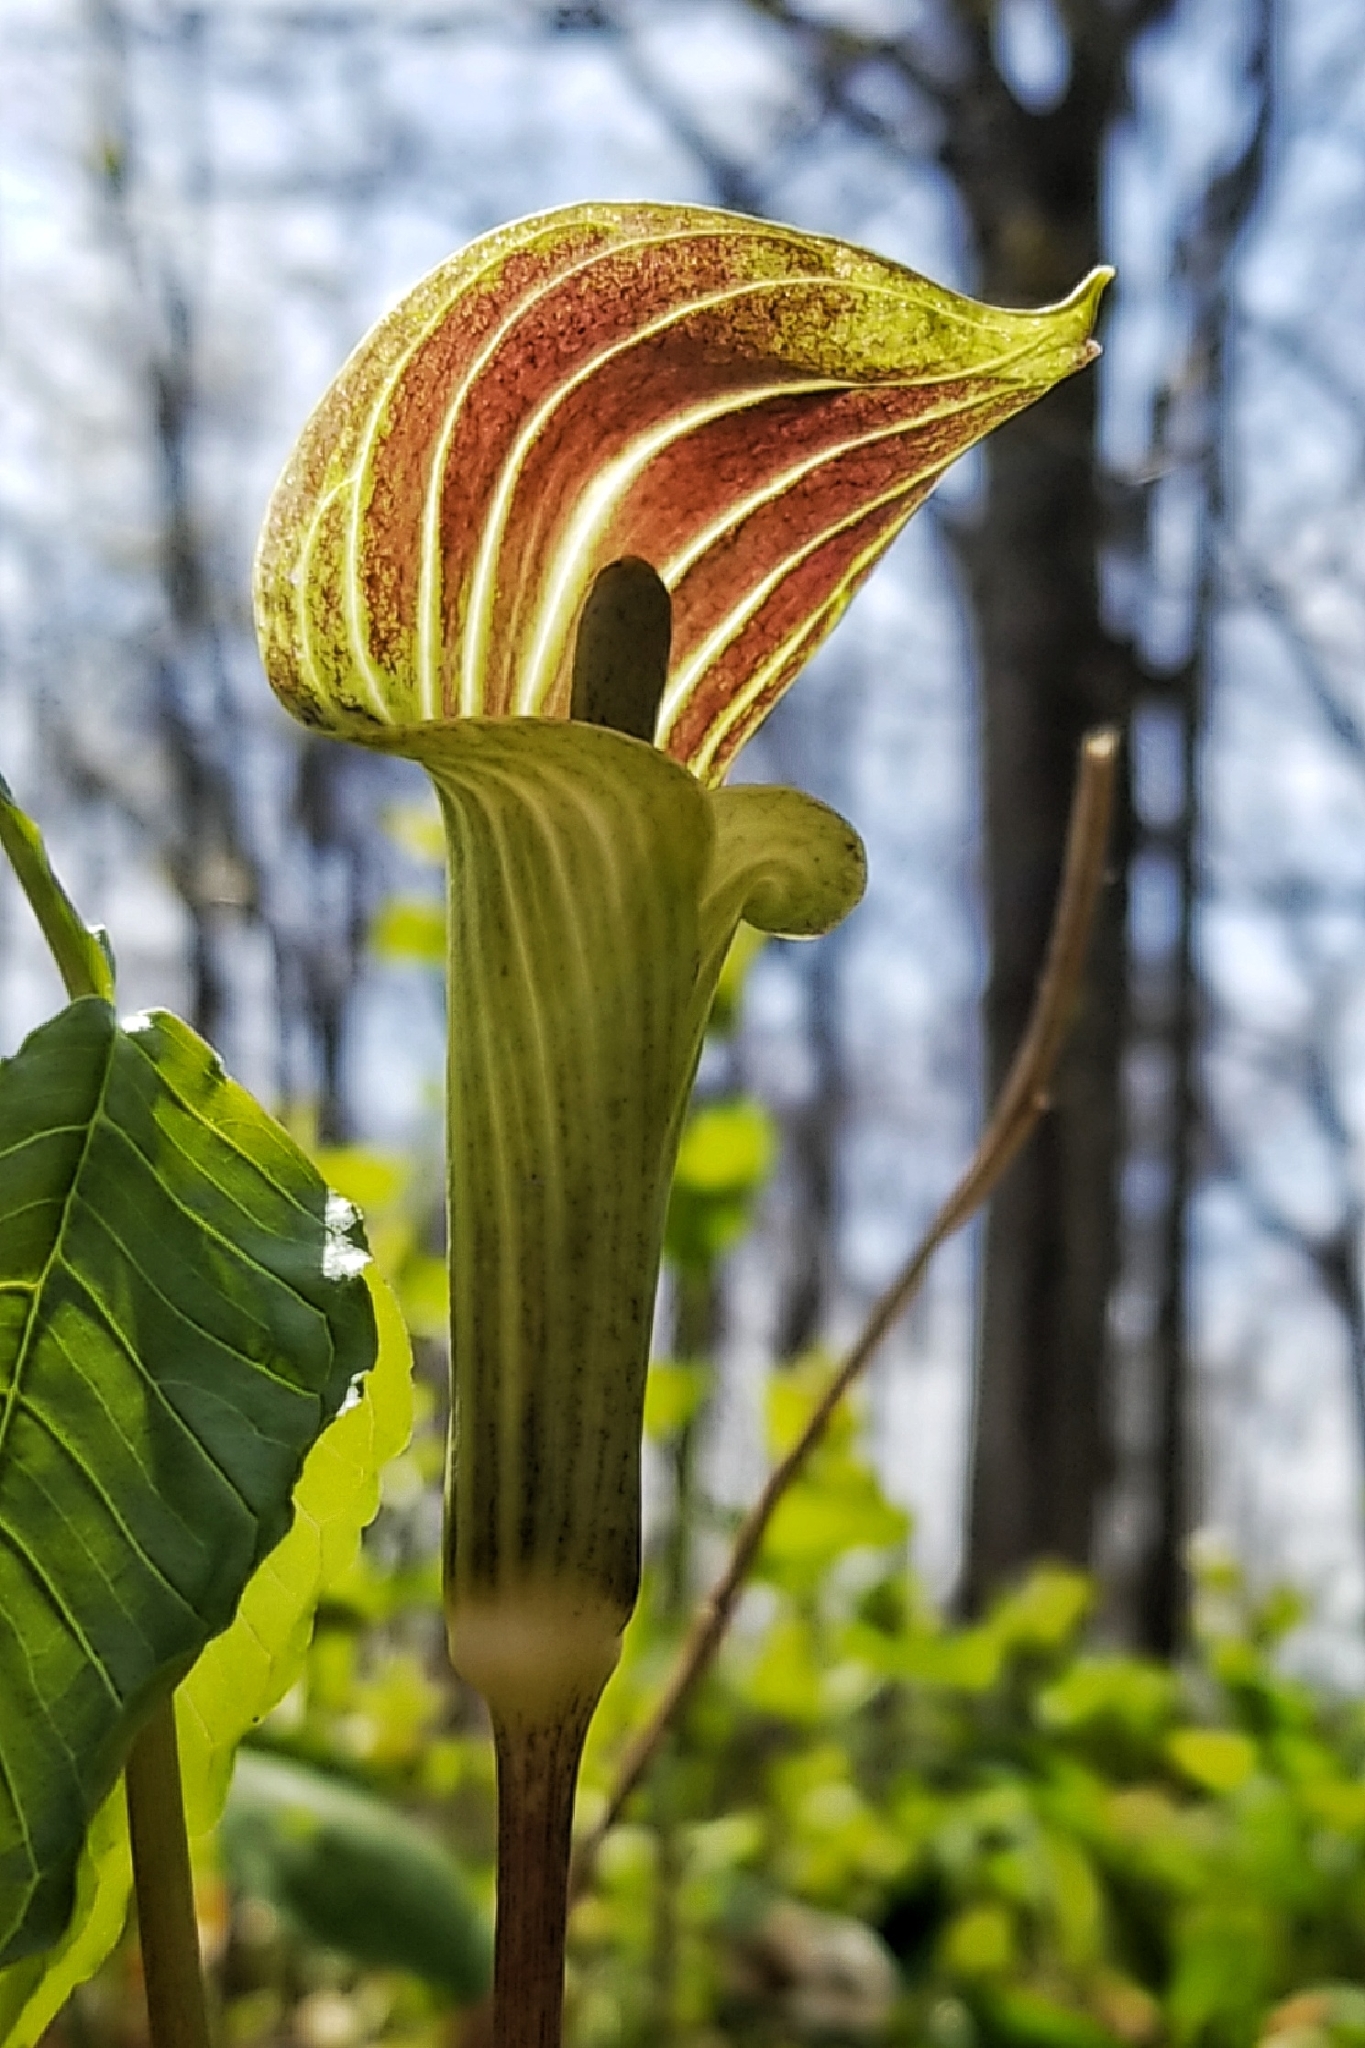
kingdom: Plantae
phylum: Tracheophyta
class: Liliopsida
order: Alismatales
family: Araceae
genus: Arisaema
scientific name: Arisaema triphyllum
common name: Jack-in-the-pulpit
